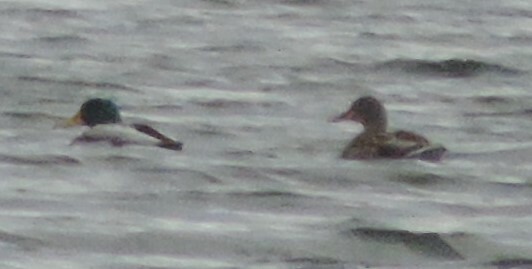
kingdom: Animalia
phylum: Chordata
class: Aves
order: Anseriformes
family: Anatidae
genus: Anas
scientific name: Anas platyrhynchos
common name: Mallard
